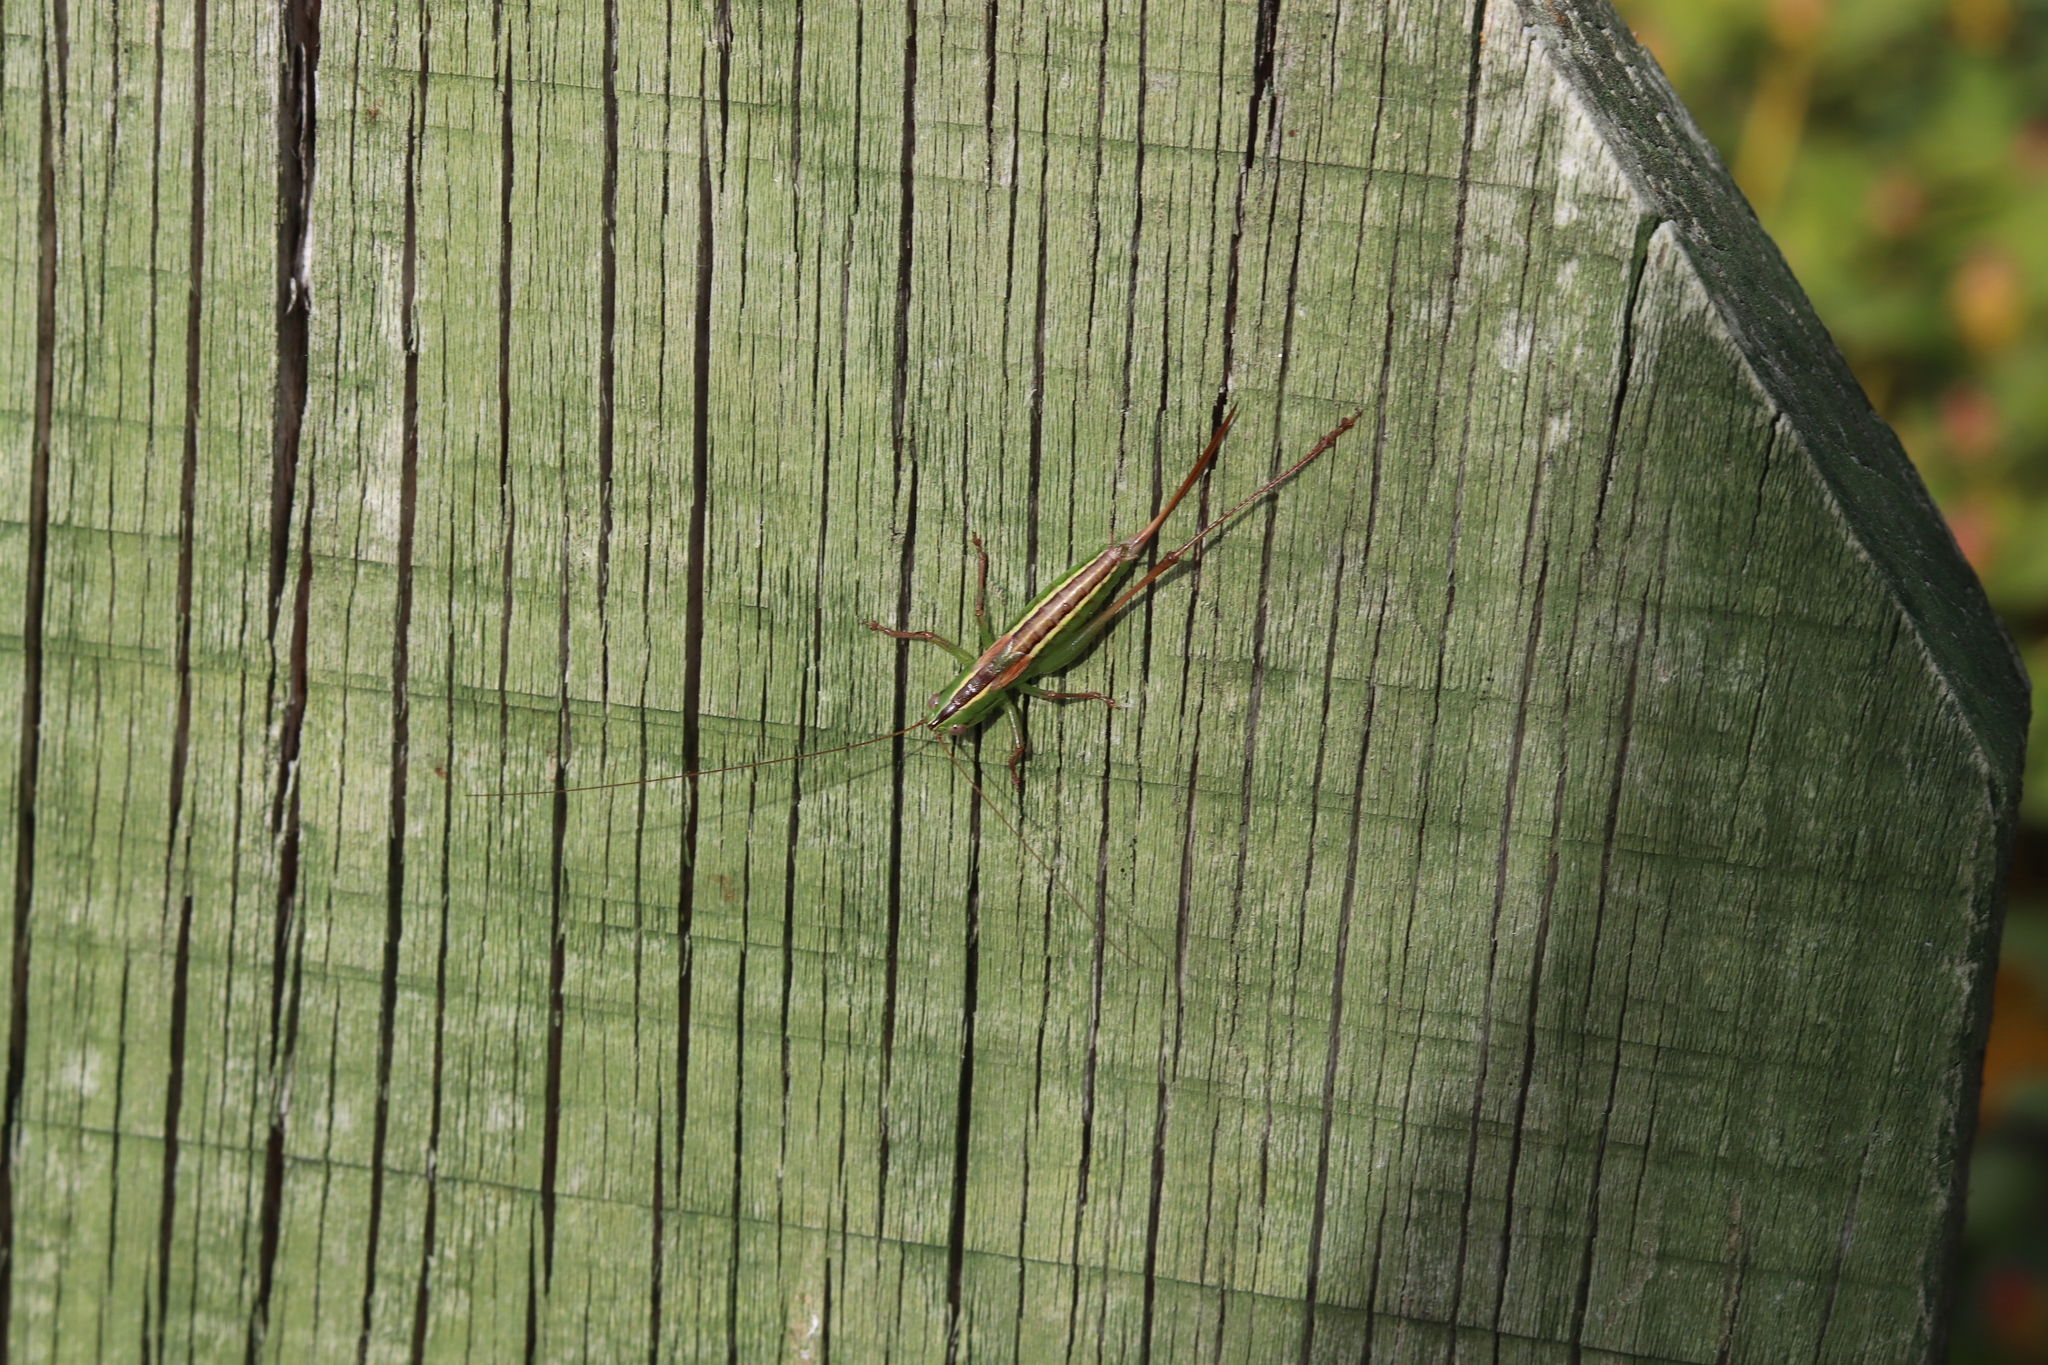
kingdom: Animalia
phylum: Arthropoda
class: Insecta
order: Orthoptera
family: Tettigoniidae
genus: Conocephalus
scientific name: Conocephalus bilineatus
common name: Small meadow katydid
